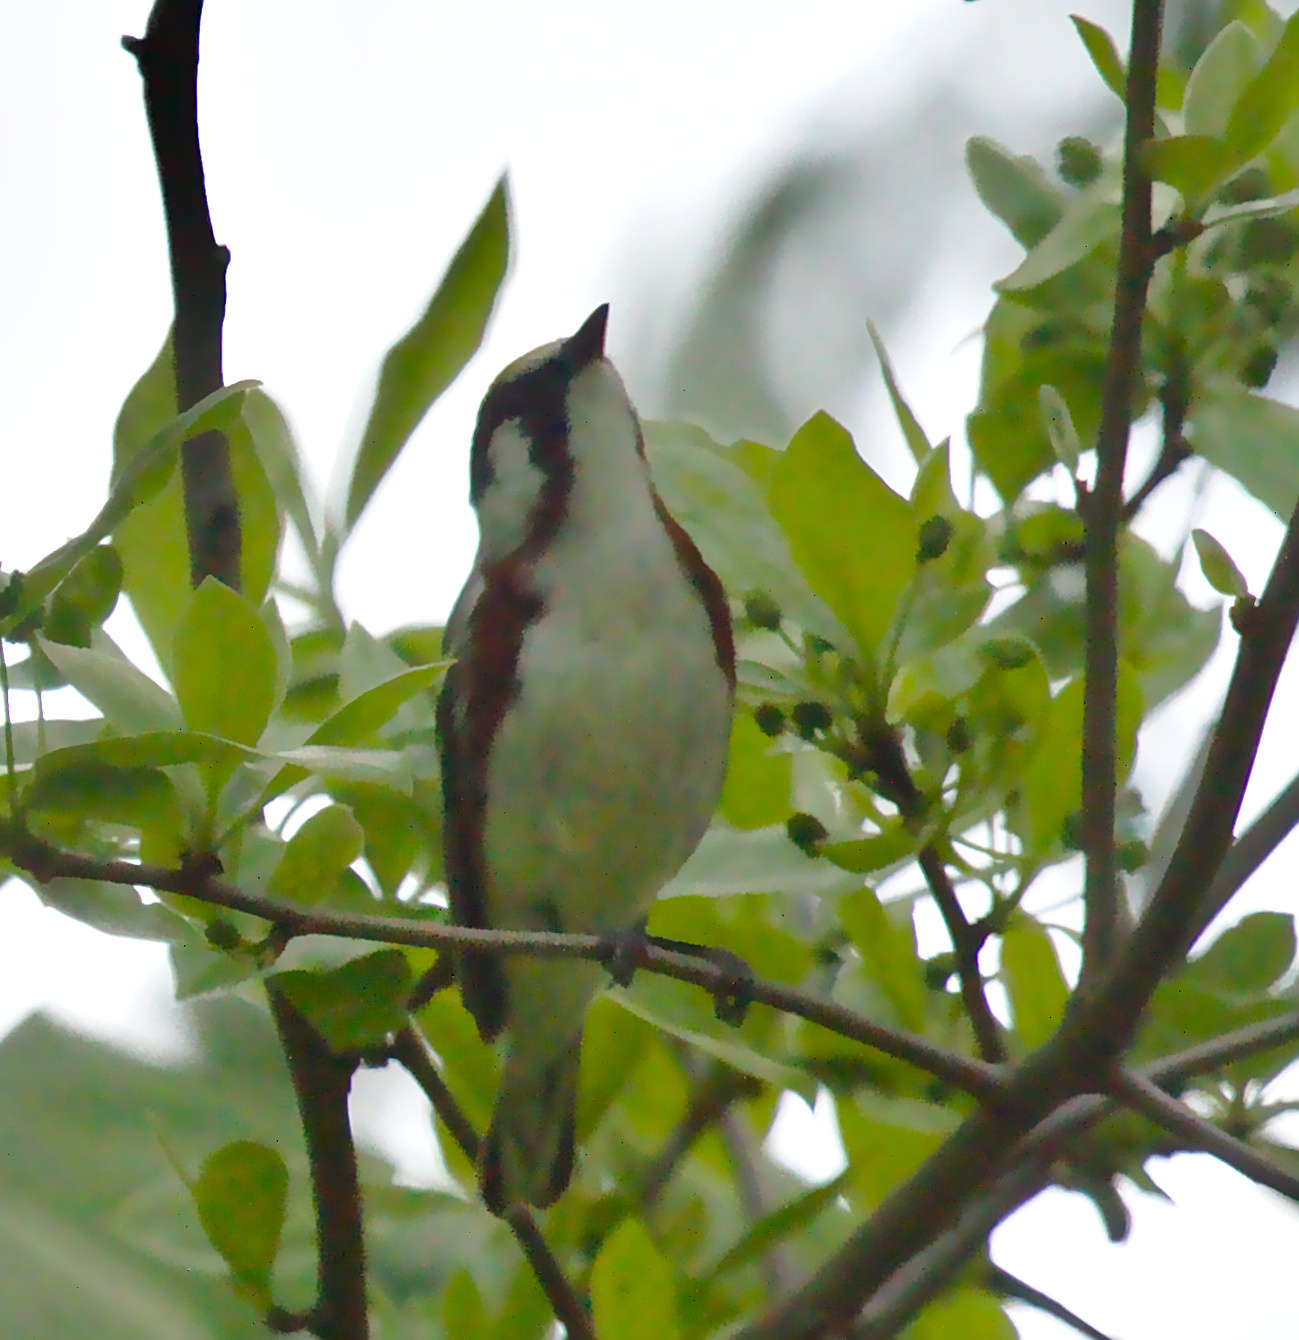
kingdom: Animalia
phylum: Chordata
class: Aves
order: Passeriformes
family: Parulidae
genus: Setophaga
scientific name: Setophaga pensylvanica
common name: Chestnut-sided warbler
